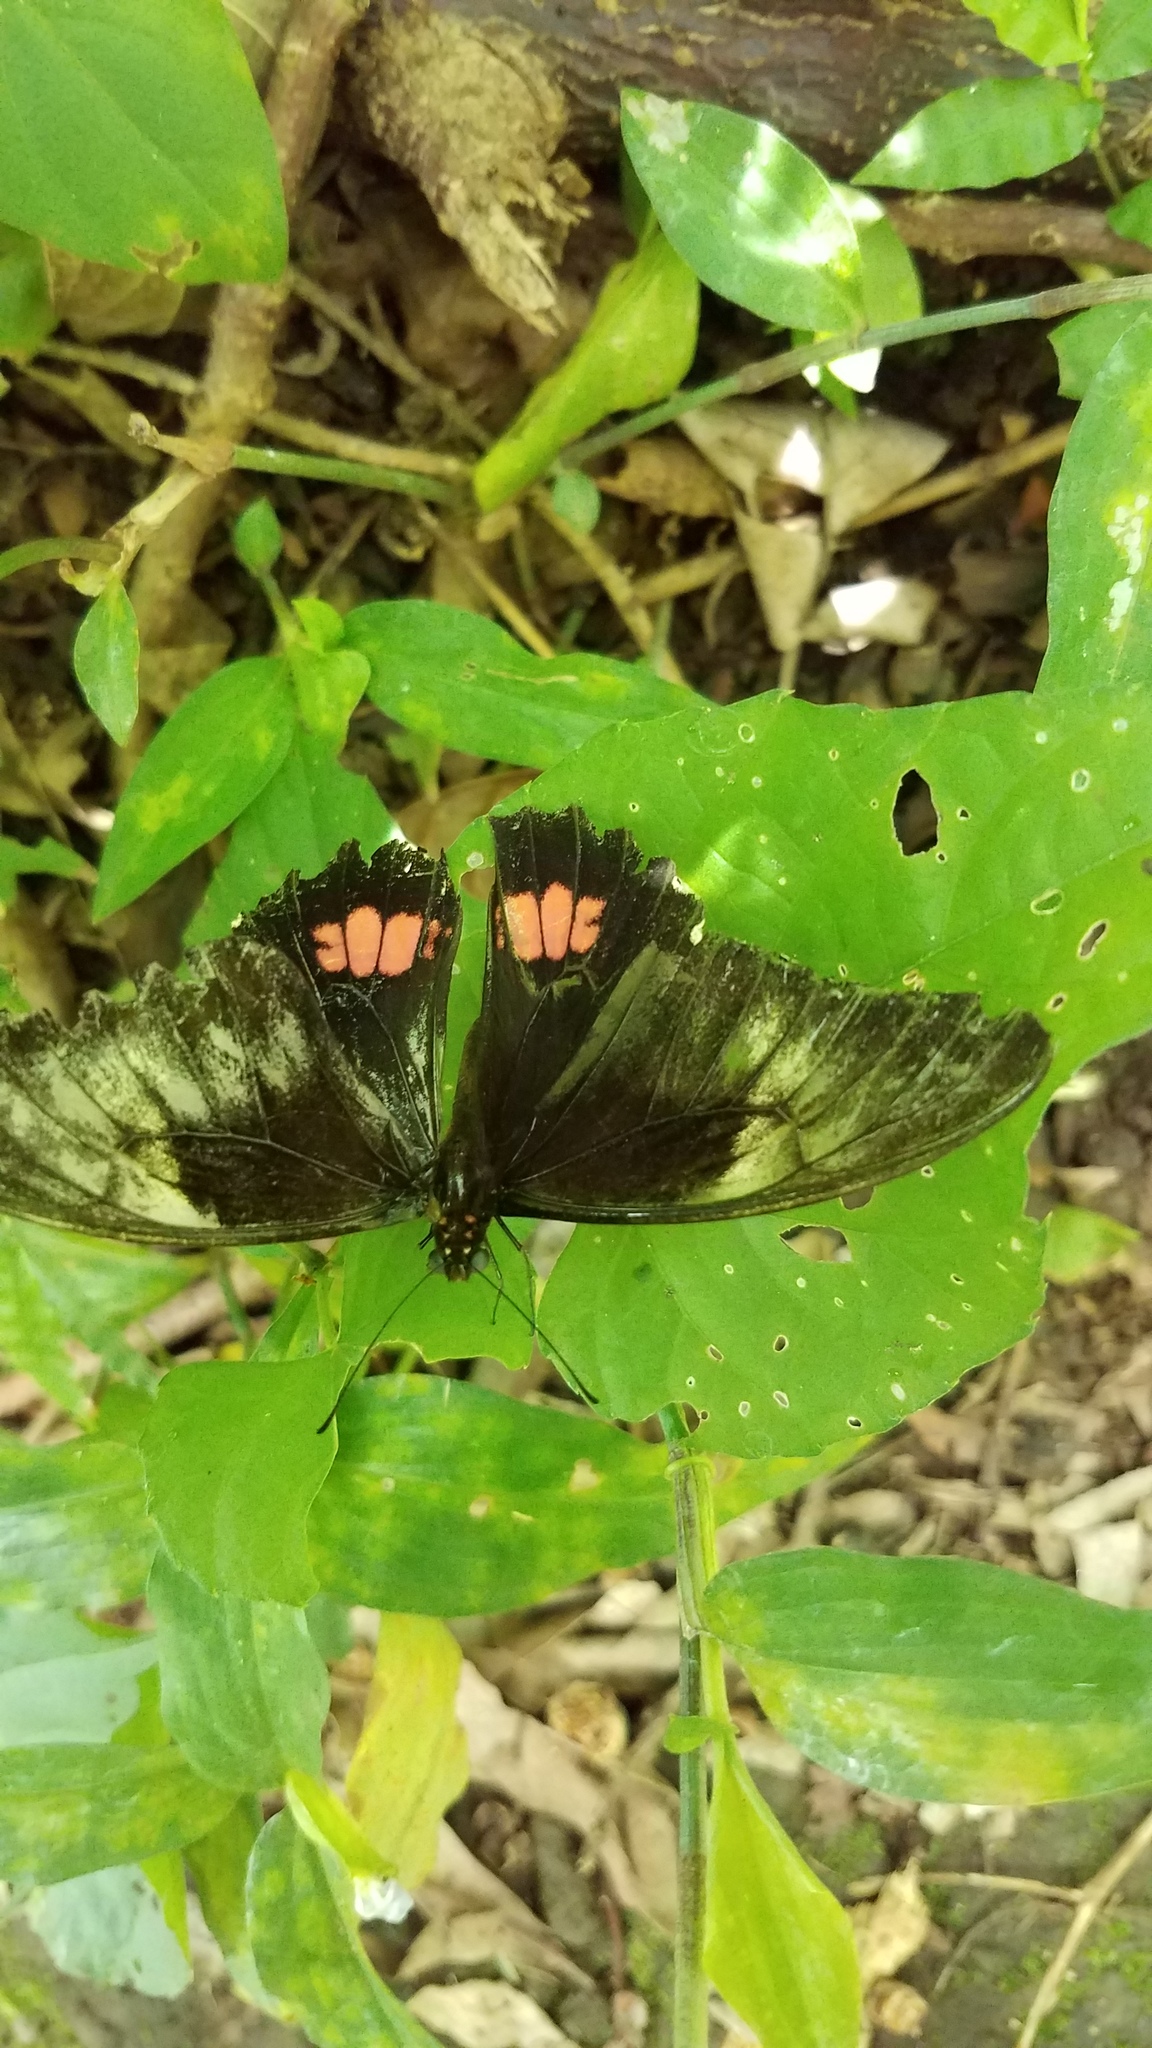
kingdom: Animalia
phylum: Arthropoda
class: Insecta
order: Lepidoptera
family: Papilionidae
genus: Papilio
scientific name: Papilio anchisiades
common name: Idaes swallowtail
